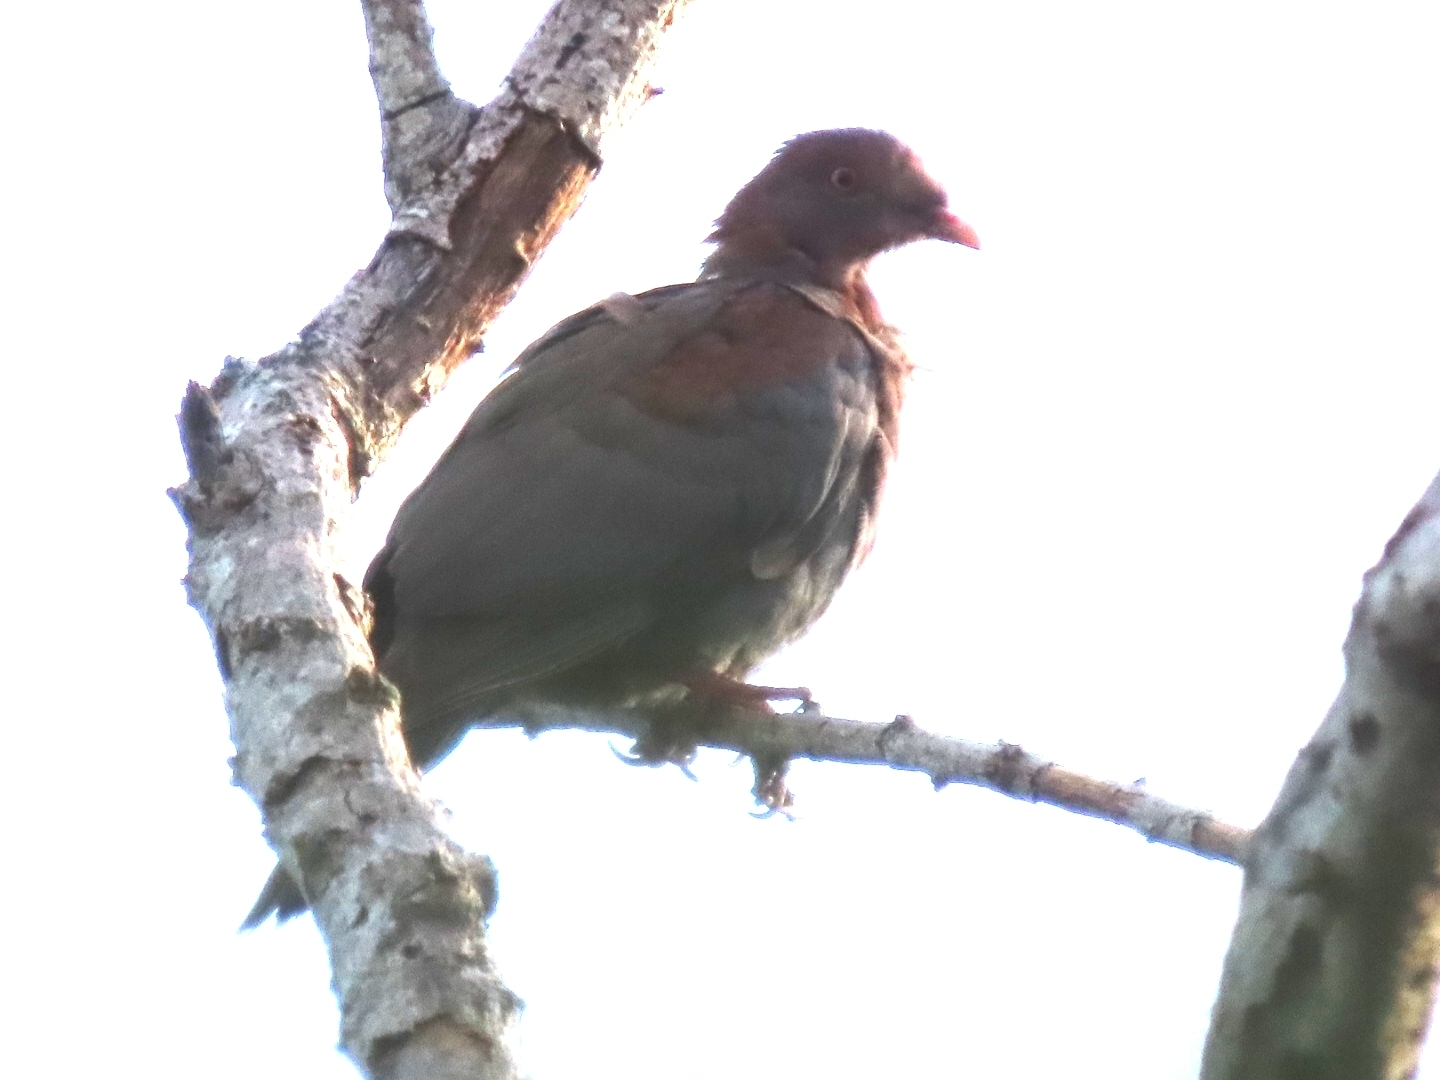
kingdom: Animalia
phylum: Chordata
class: Aves
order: Columbiformes
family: Columbidae
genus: Patagioenas
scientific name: Patagioenas flavirostris
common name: Red-billed pigeon
